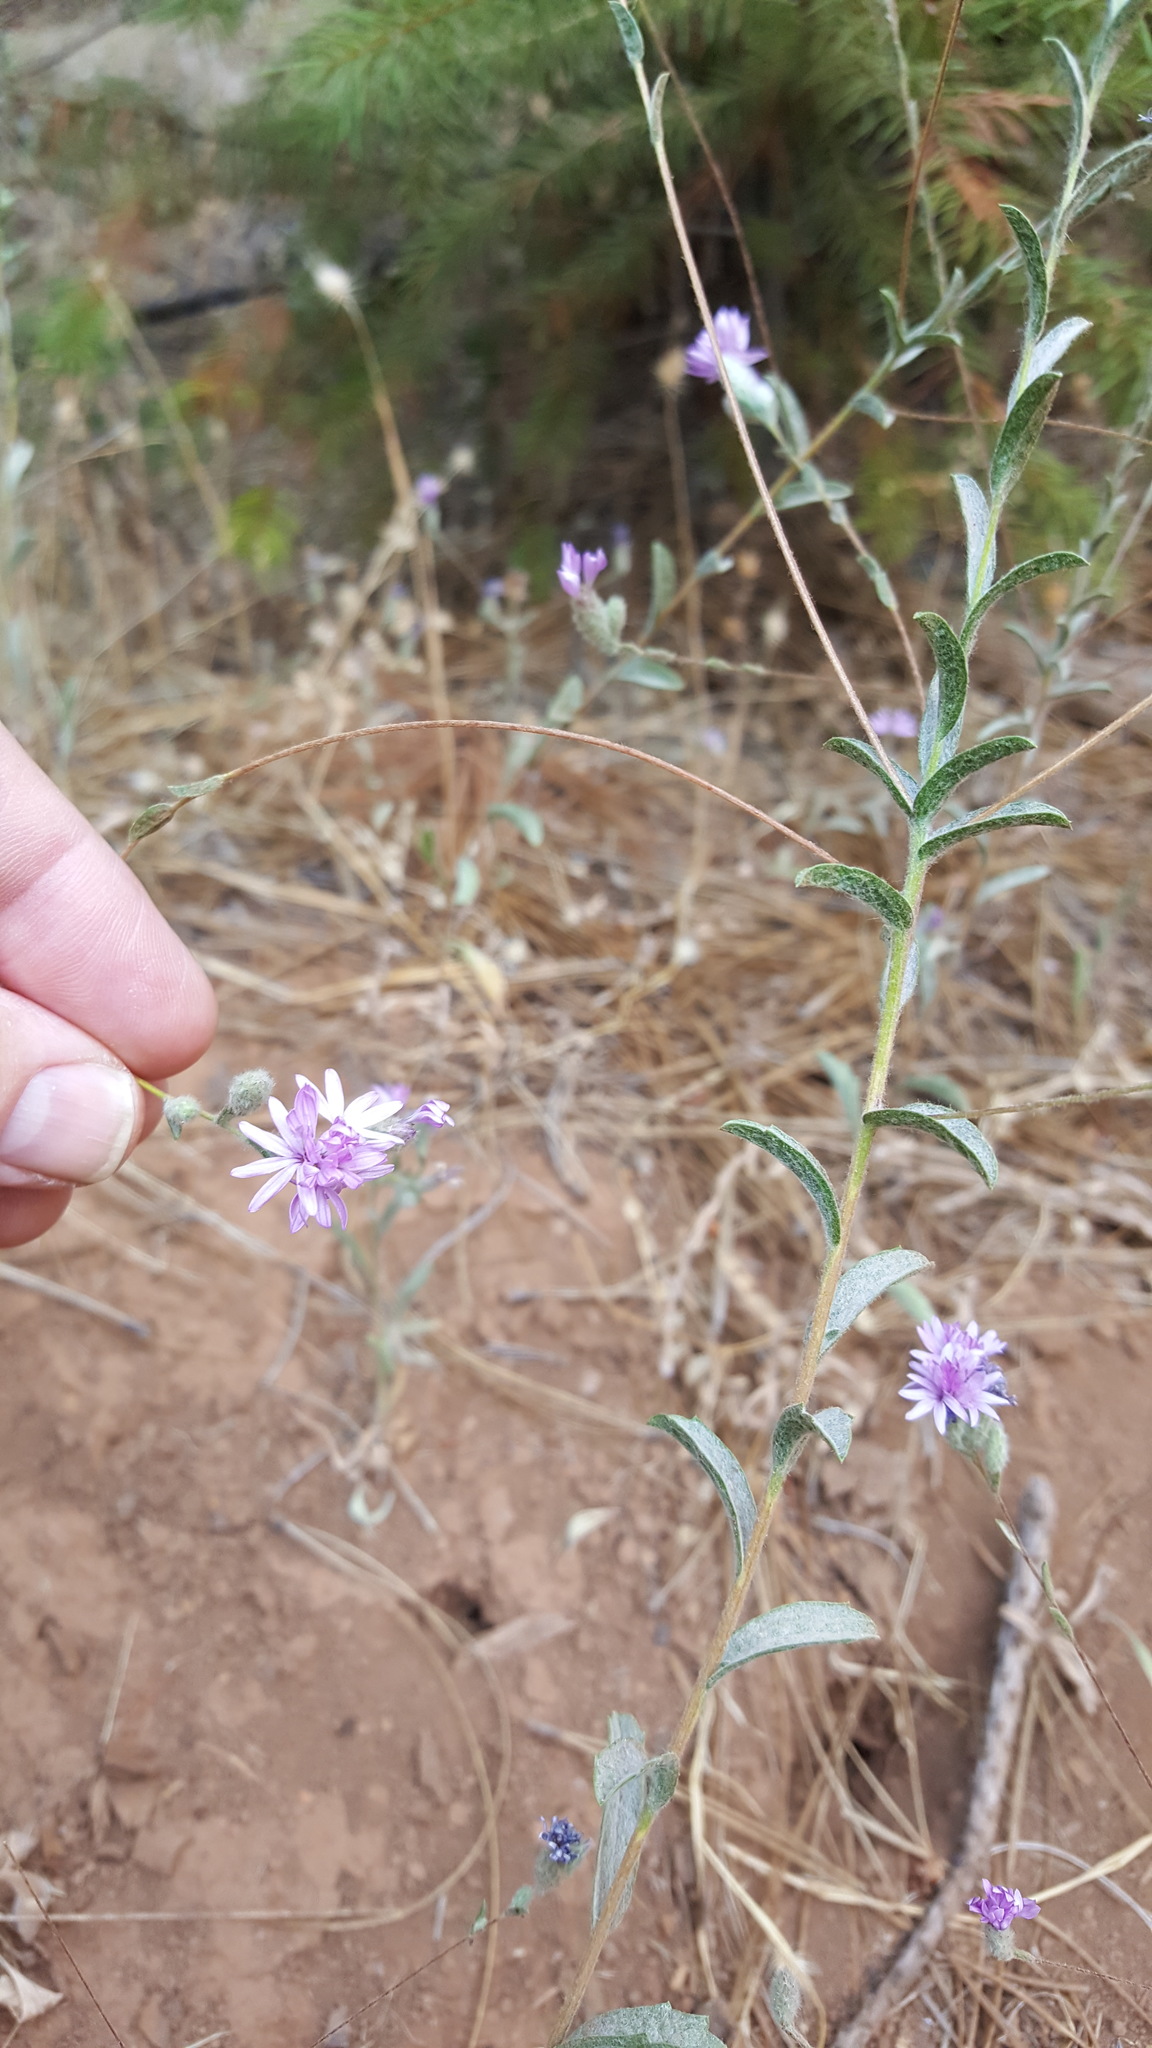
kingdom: Plantae
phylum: Tracheophyta
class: Magnoliopsida
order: Asterales
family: Asteraceae
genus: Lessingia
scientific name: Lessingia leptoclada
